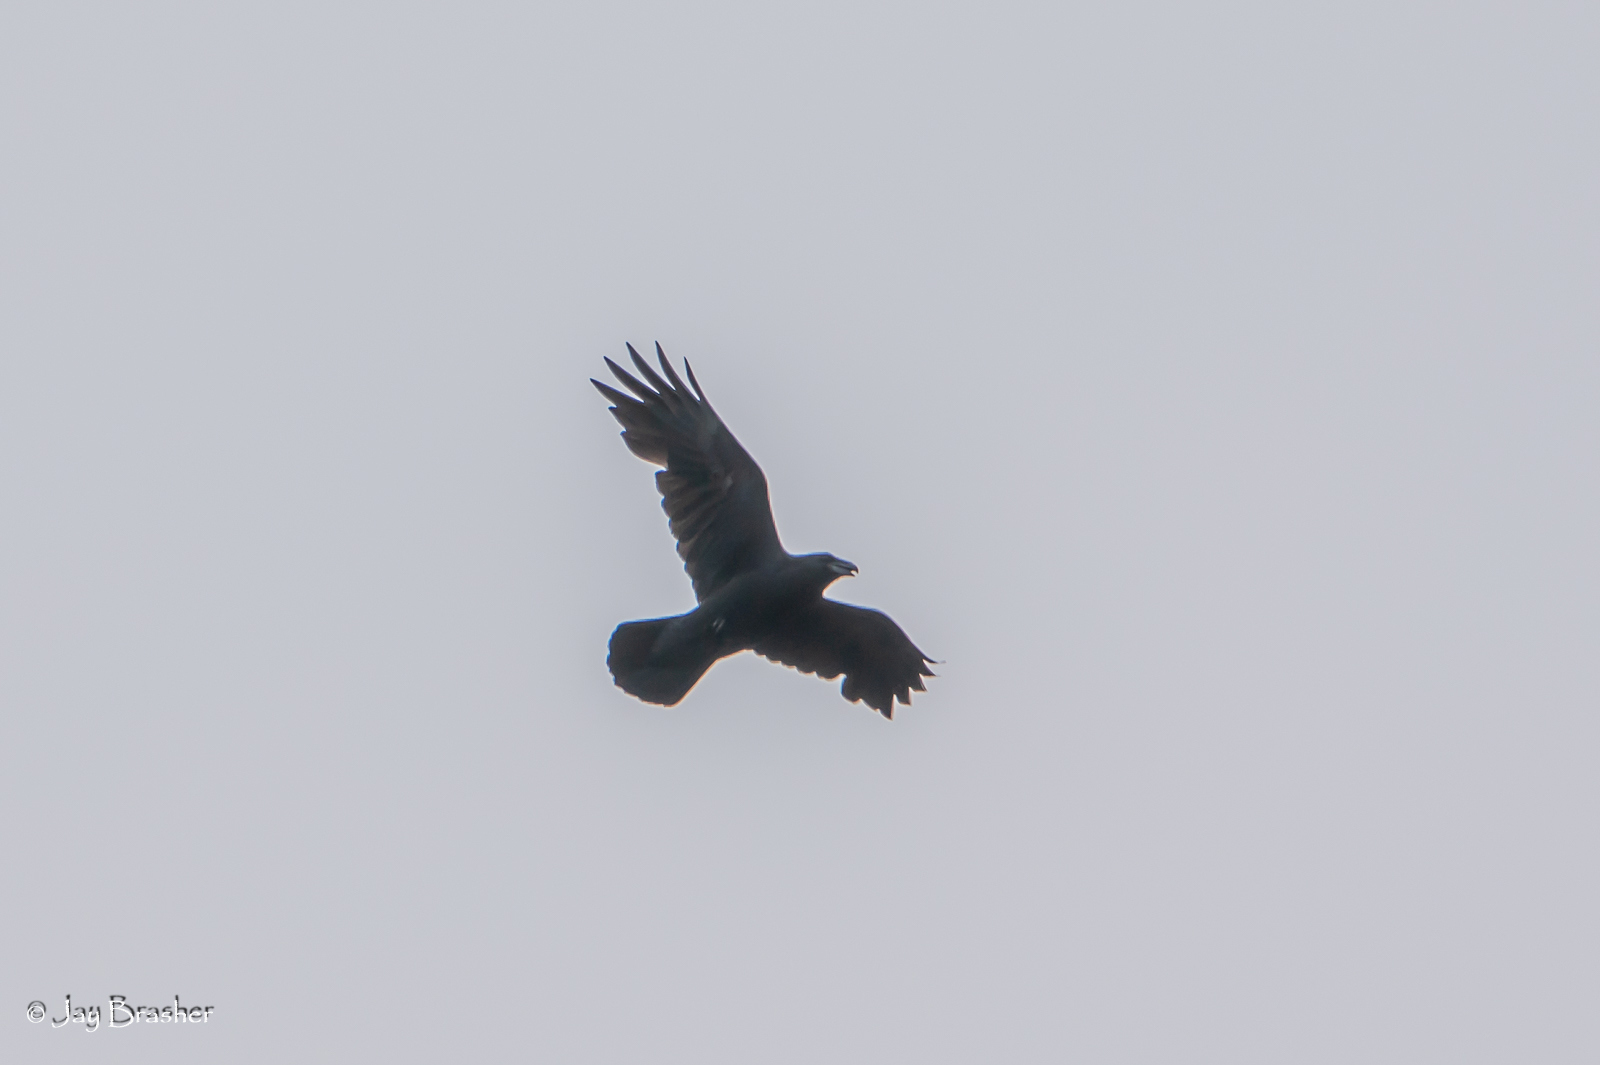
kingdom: Animalia
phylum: Chordata
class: Aves
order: Passeriformes
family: Corvidae
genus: Corvus
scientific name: Corvus corax
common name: Common raven
